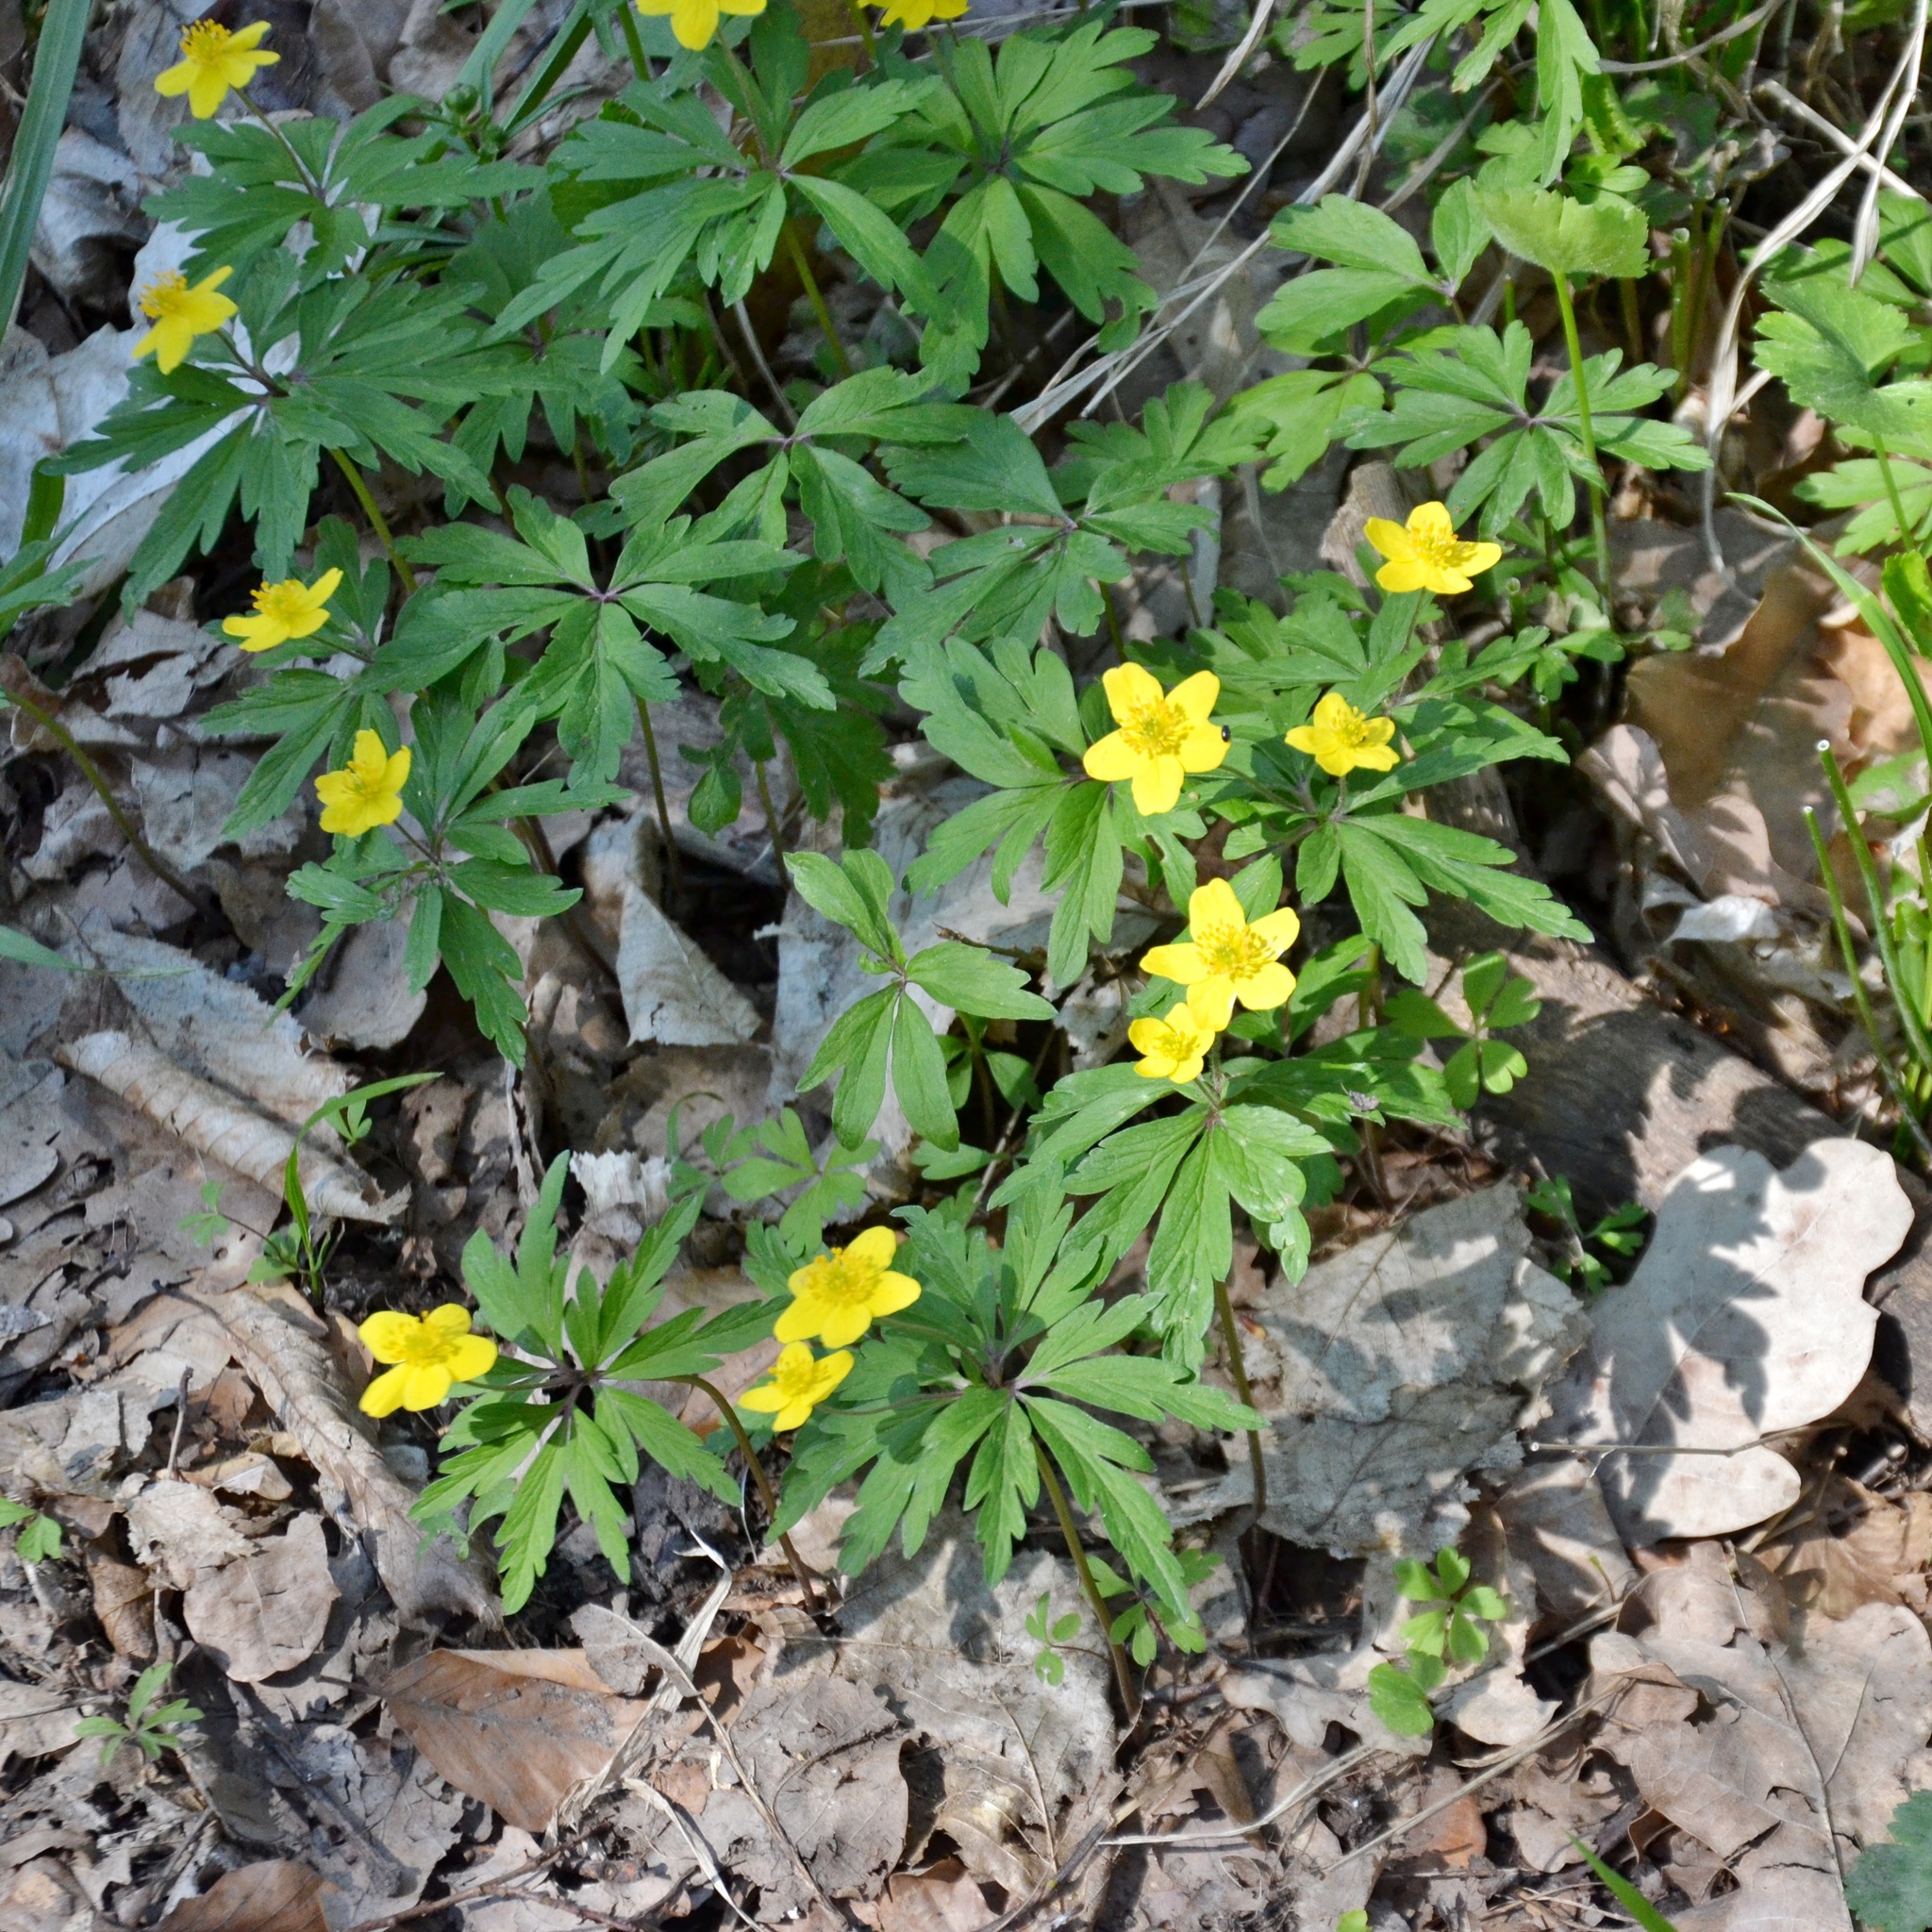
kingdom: Plantae
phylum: Tracheophyta
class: Magnoliopsida
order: Ranunculales
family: Ranunculaceae
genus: Anemone
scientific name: Anemone ranunculoides
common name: Yellow anemone
